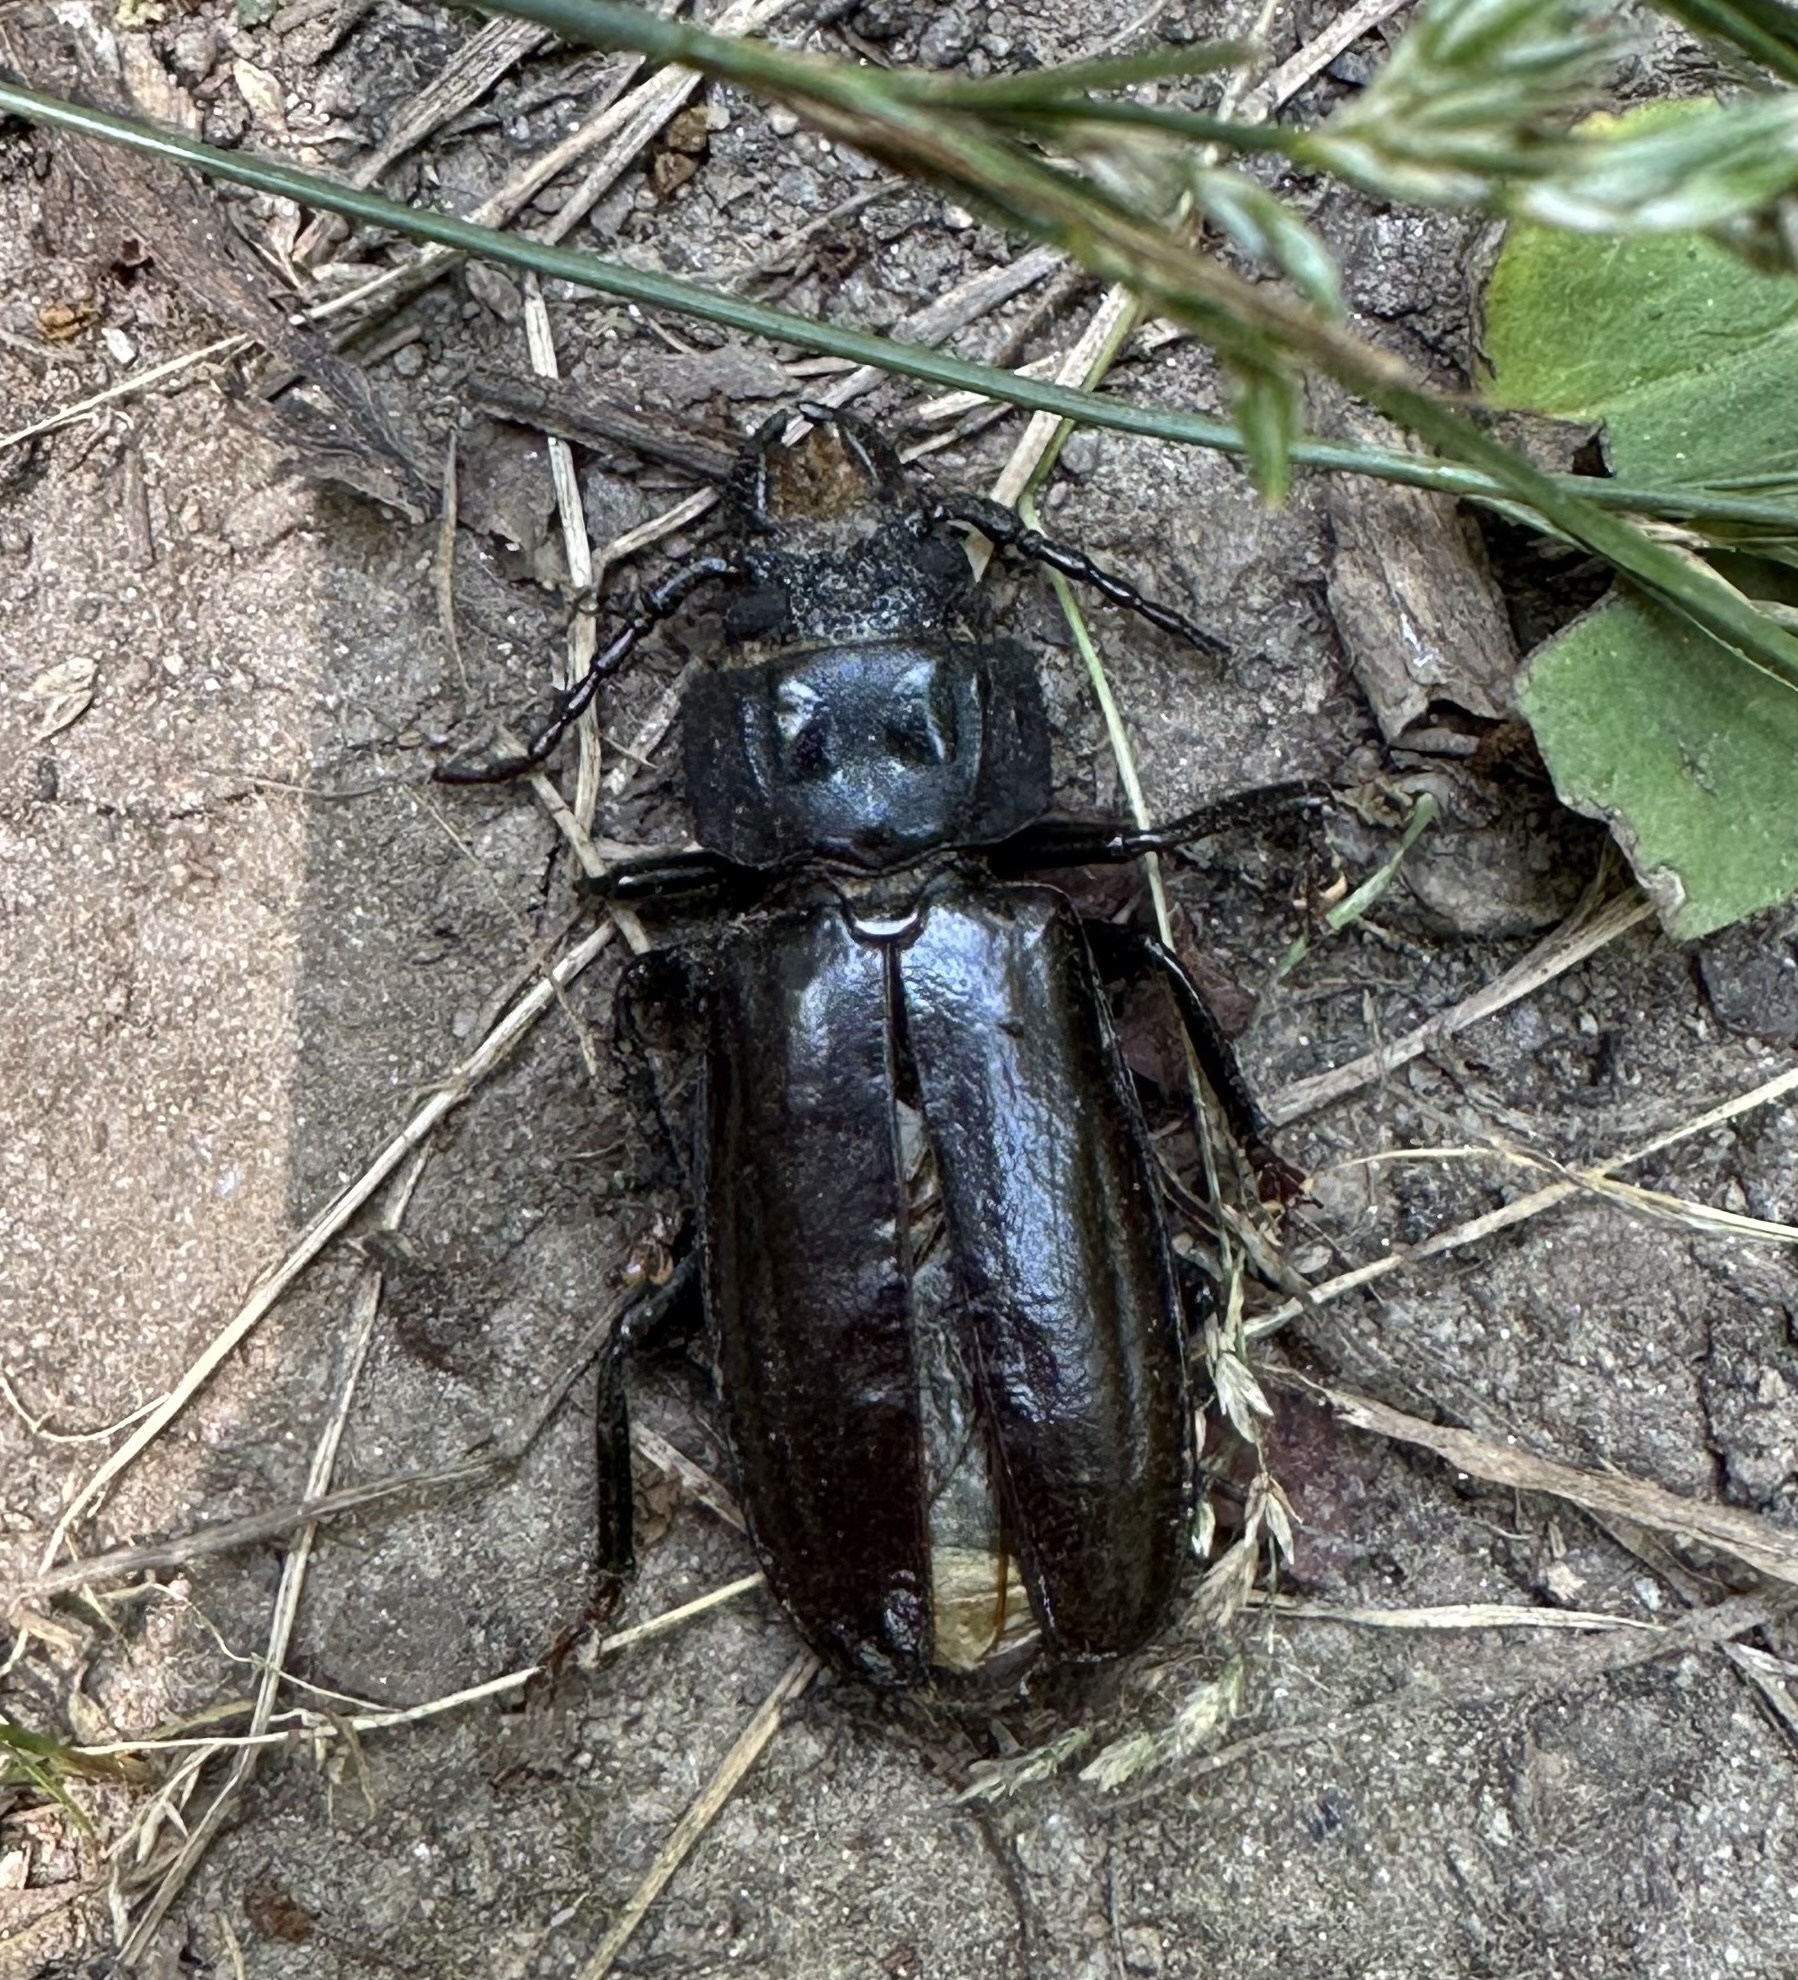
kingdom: Animalia
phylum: Arthropoda
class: Insecta
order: Coleoptera
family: Cerambycidae
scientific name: Cerambycidae
